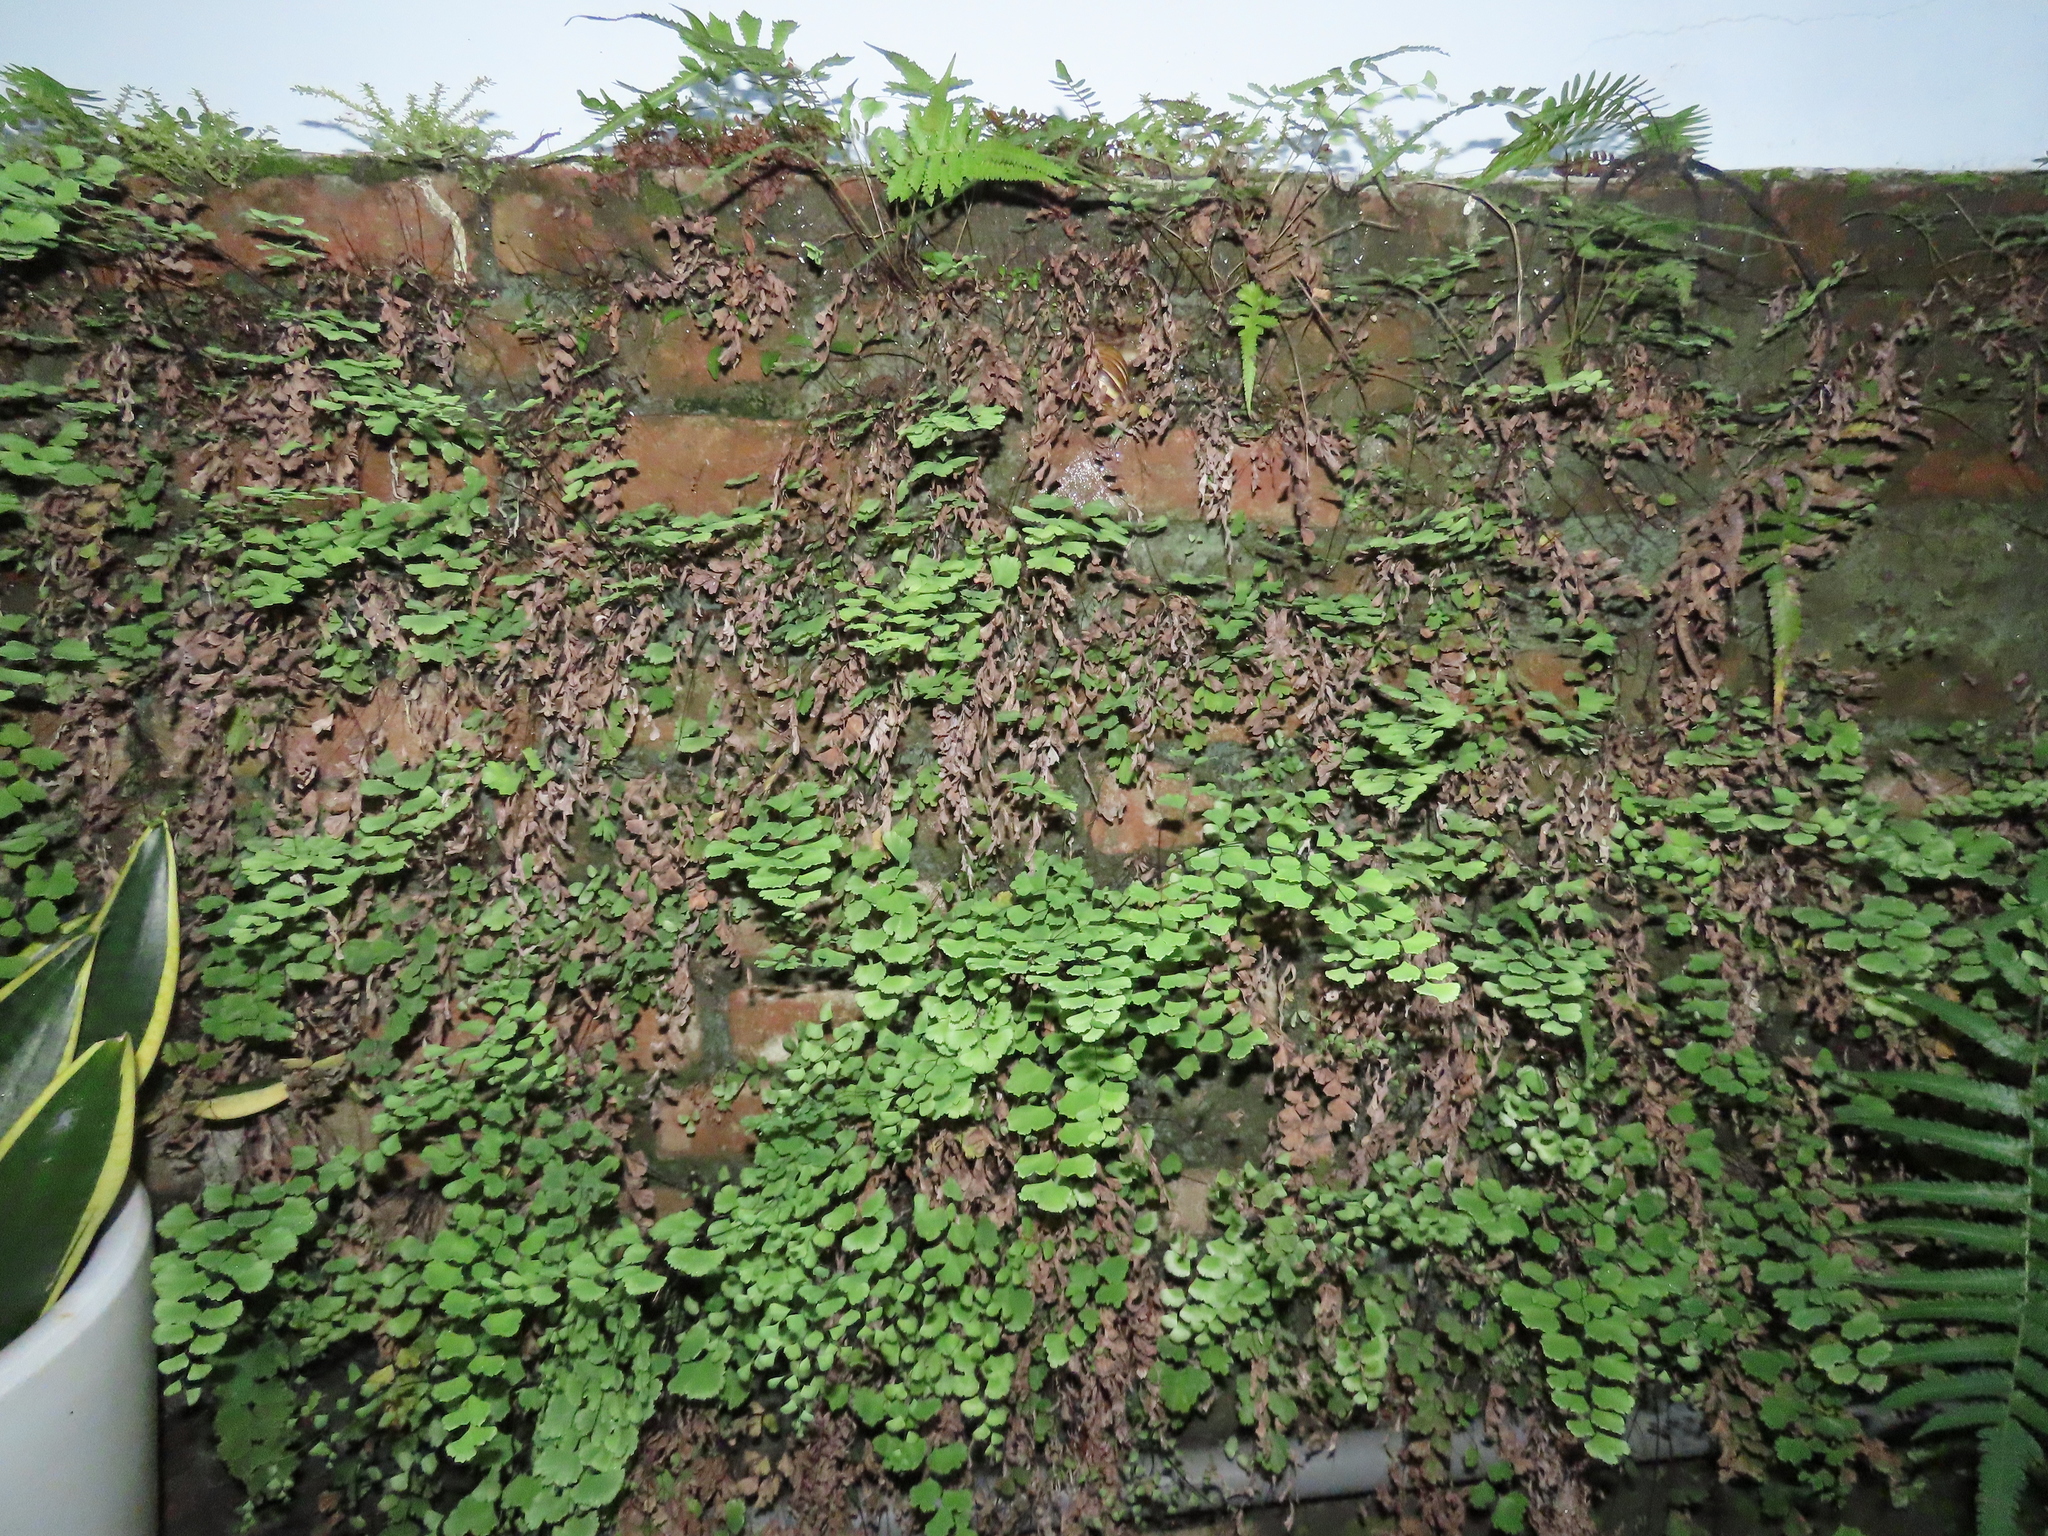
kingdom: Plantae
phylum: Tracheophyta
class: Magnoliopsida
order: Rosales
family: Urticaceae
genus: Pilea
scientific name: Pilea microphylla
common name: Artillery-plant
